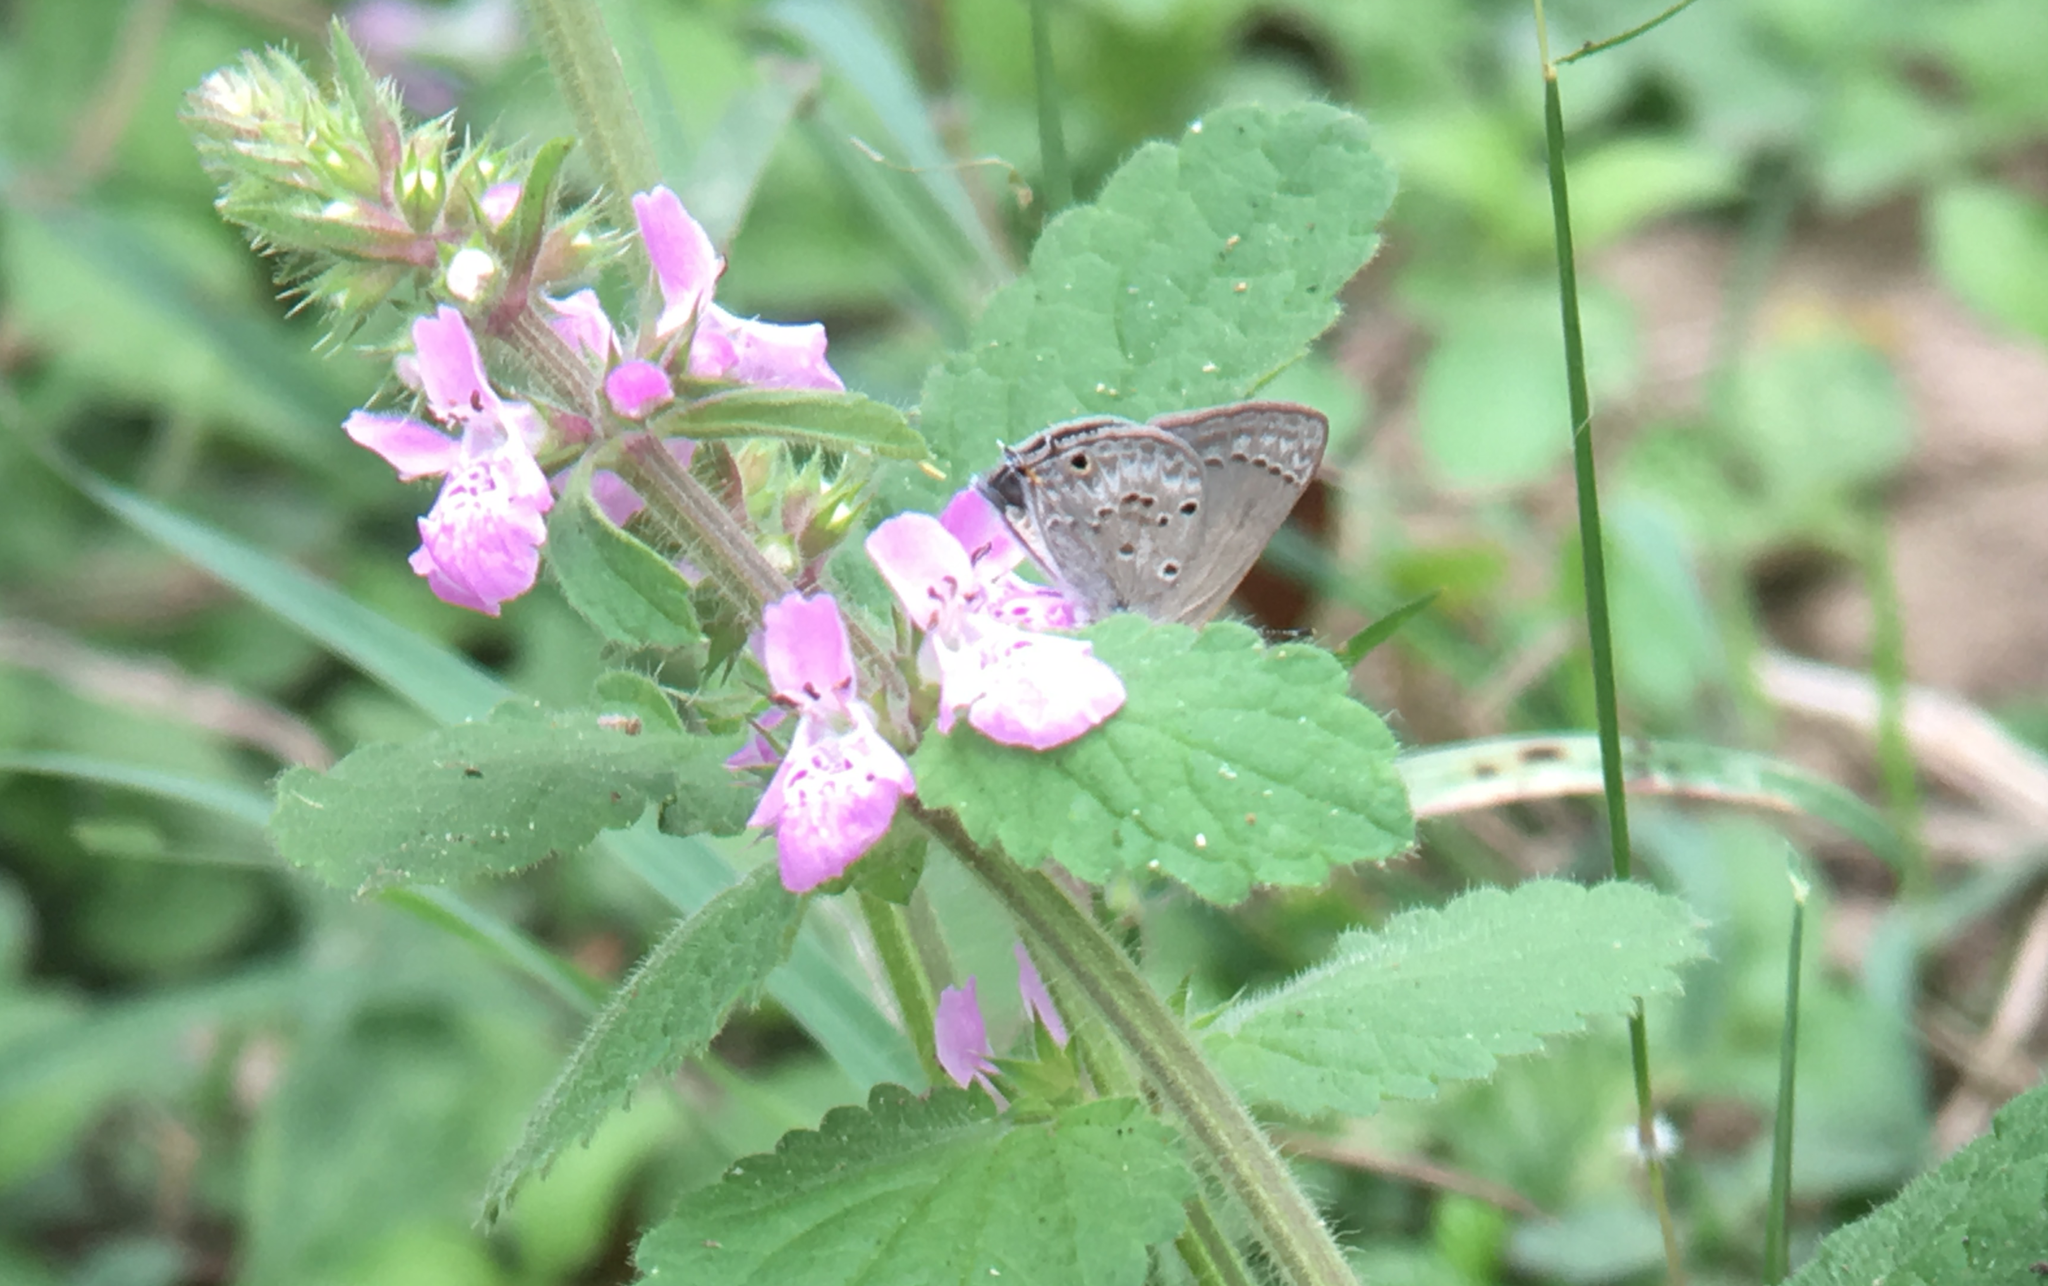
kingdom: Animalia
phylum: Arthropoda
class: Insecta
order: Lepidoptera
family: Lycaenidae
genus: Callicista
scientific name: Callicista columella
